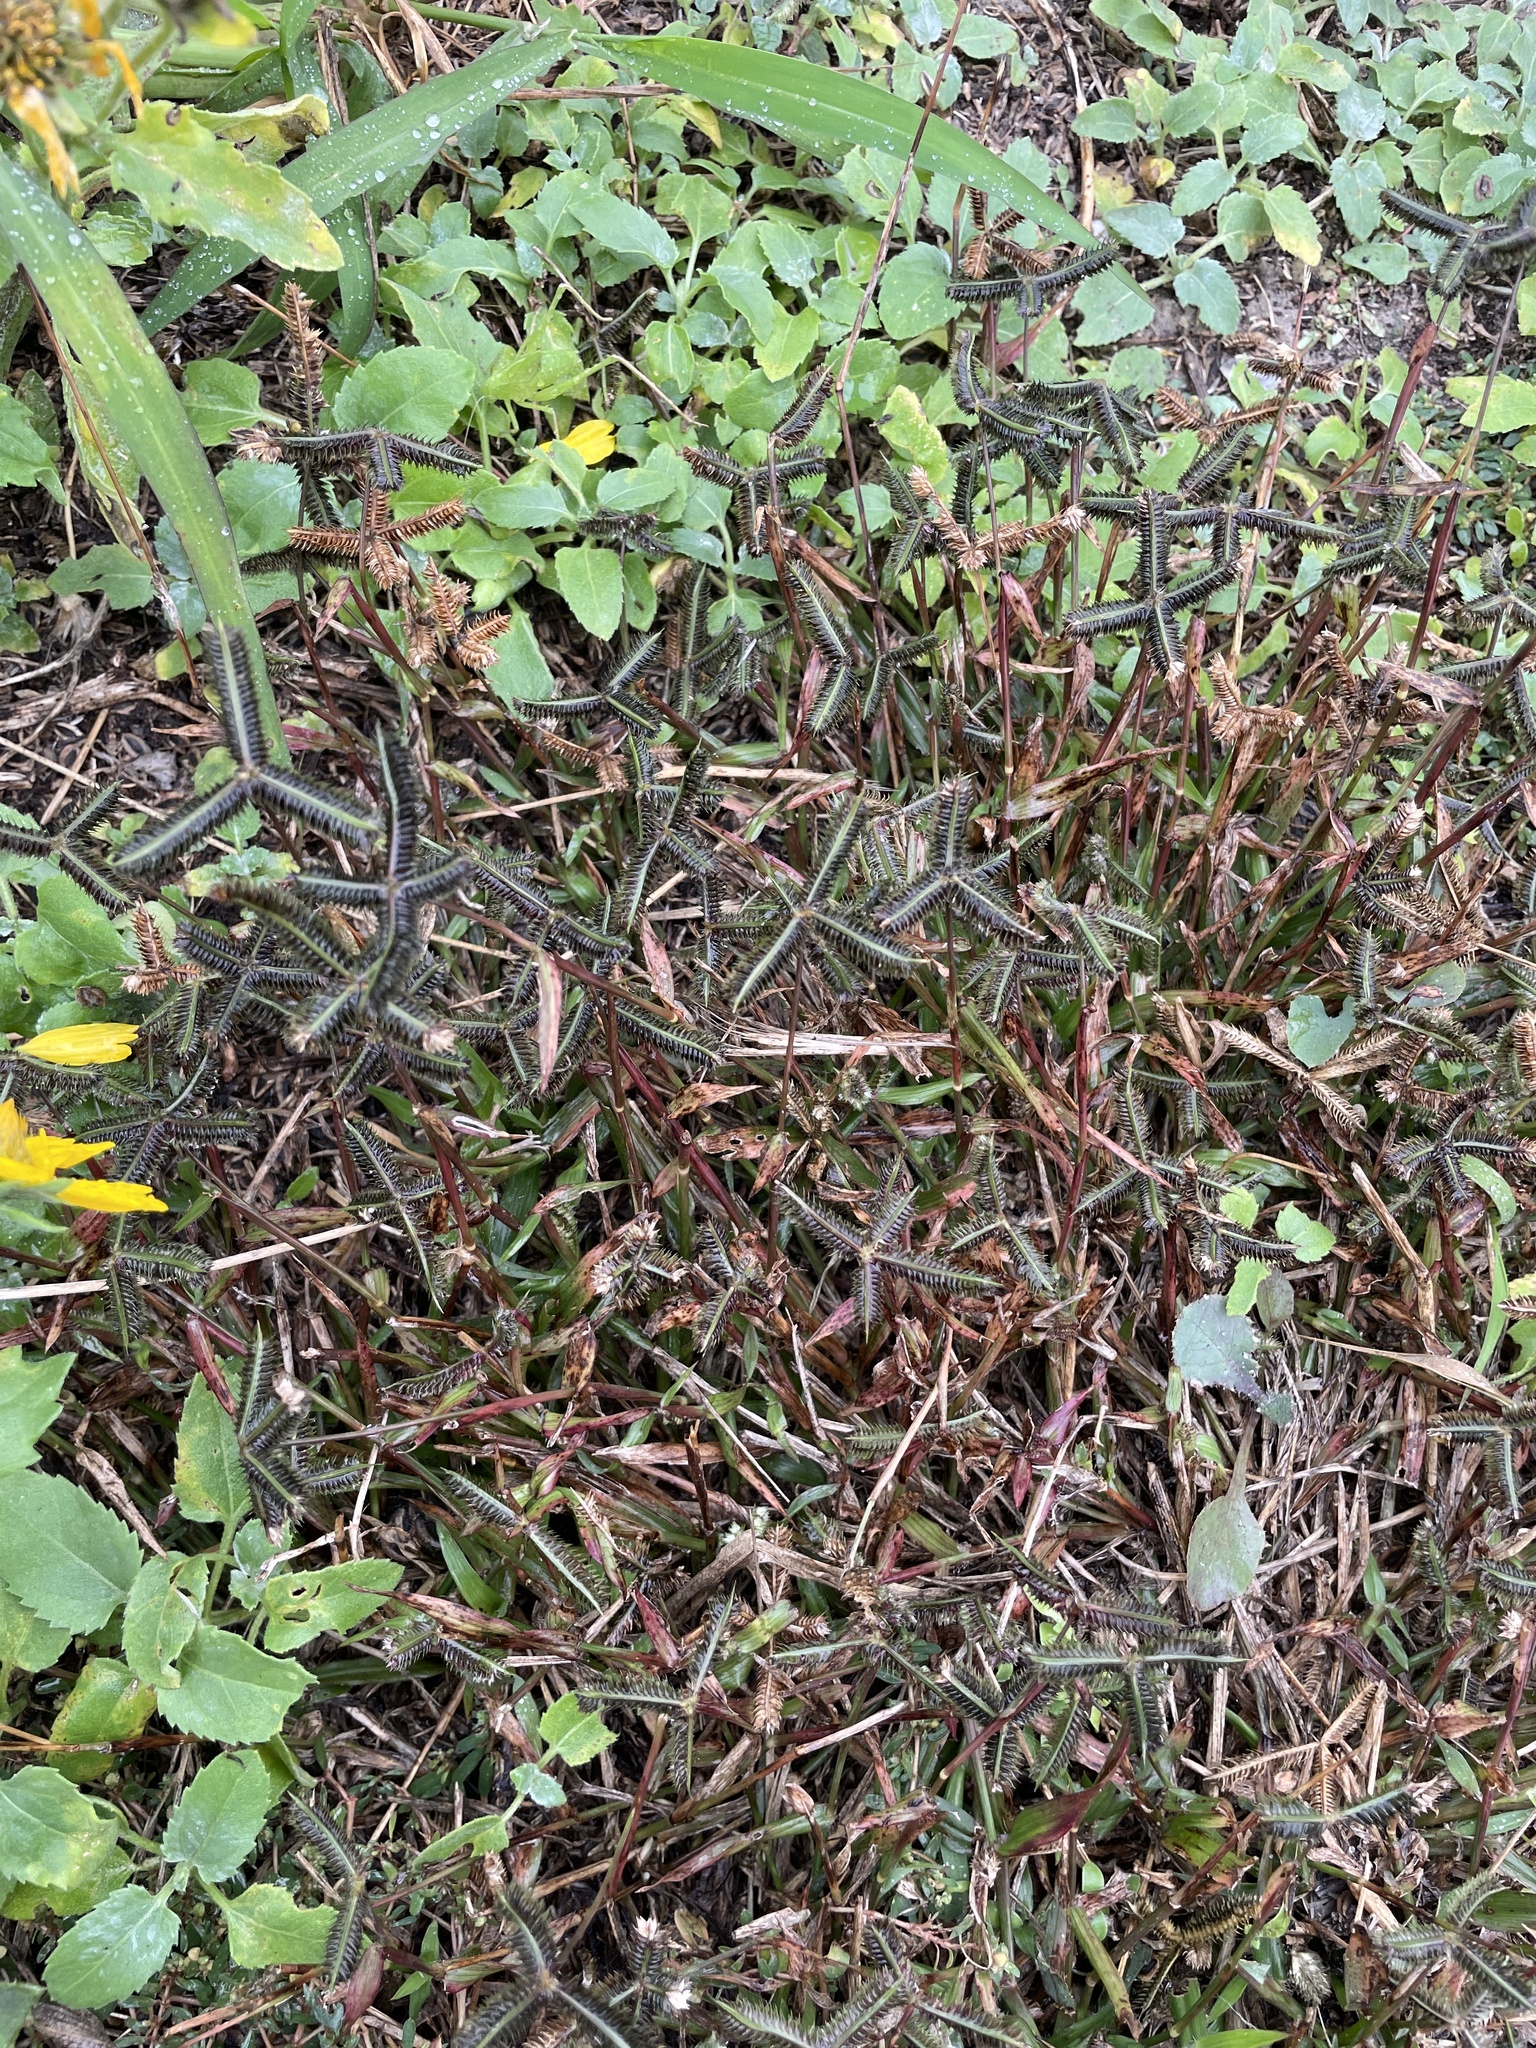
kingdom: Plantae
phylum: Tracheophyta
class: Liliopsida
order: Poales
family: Poaceae
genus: Dactyloctenium
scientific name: Dactyloctenium aegyptium
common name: Egyptian grass
